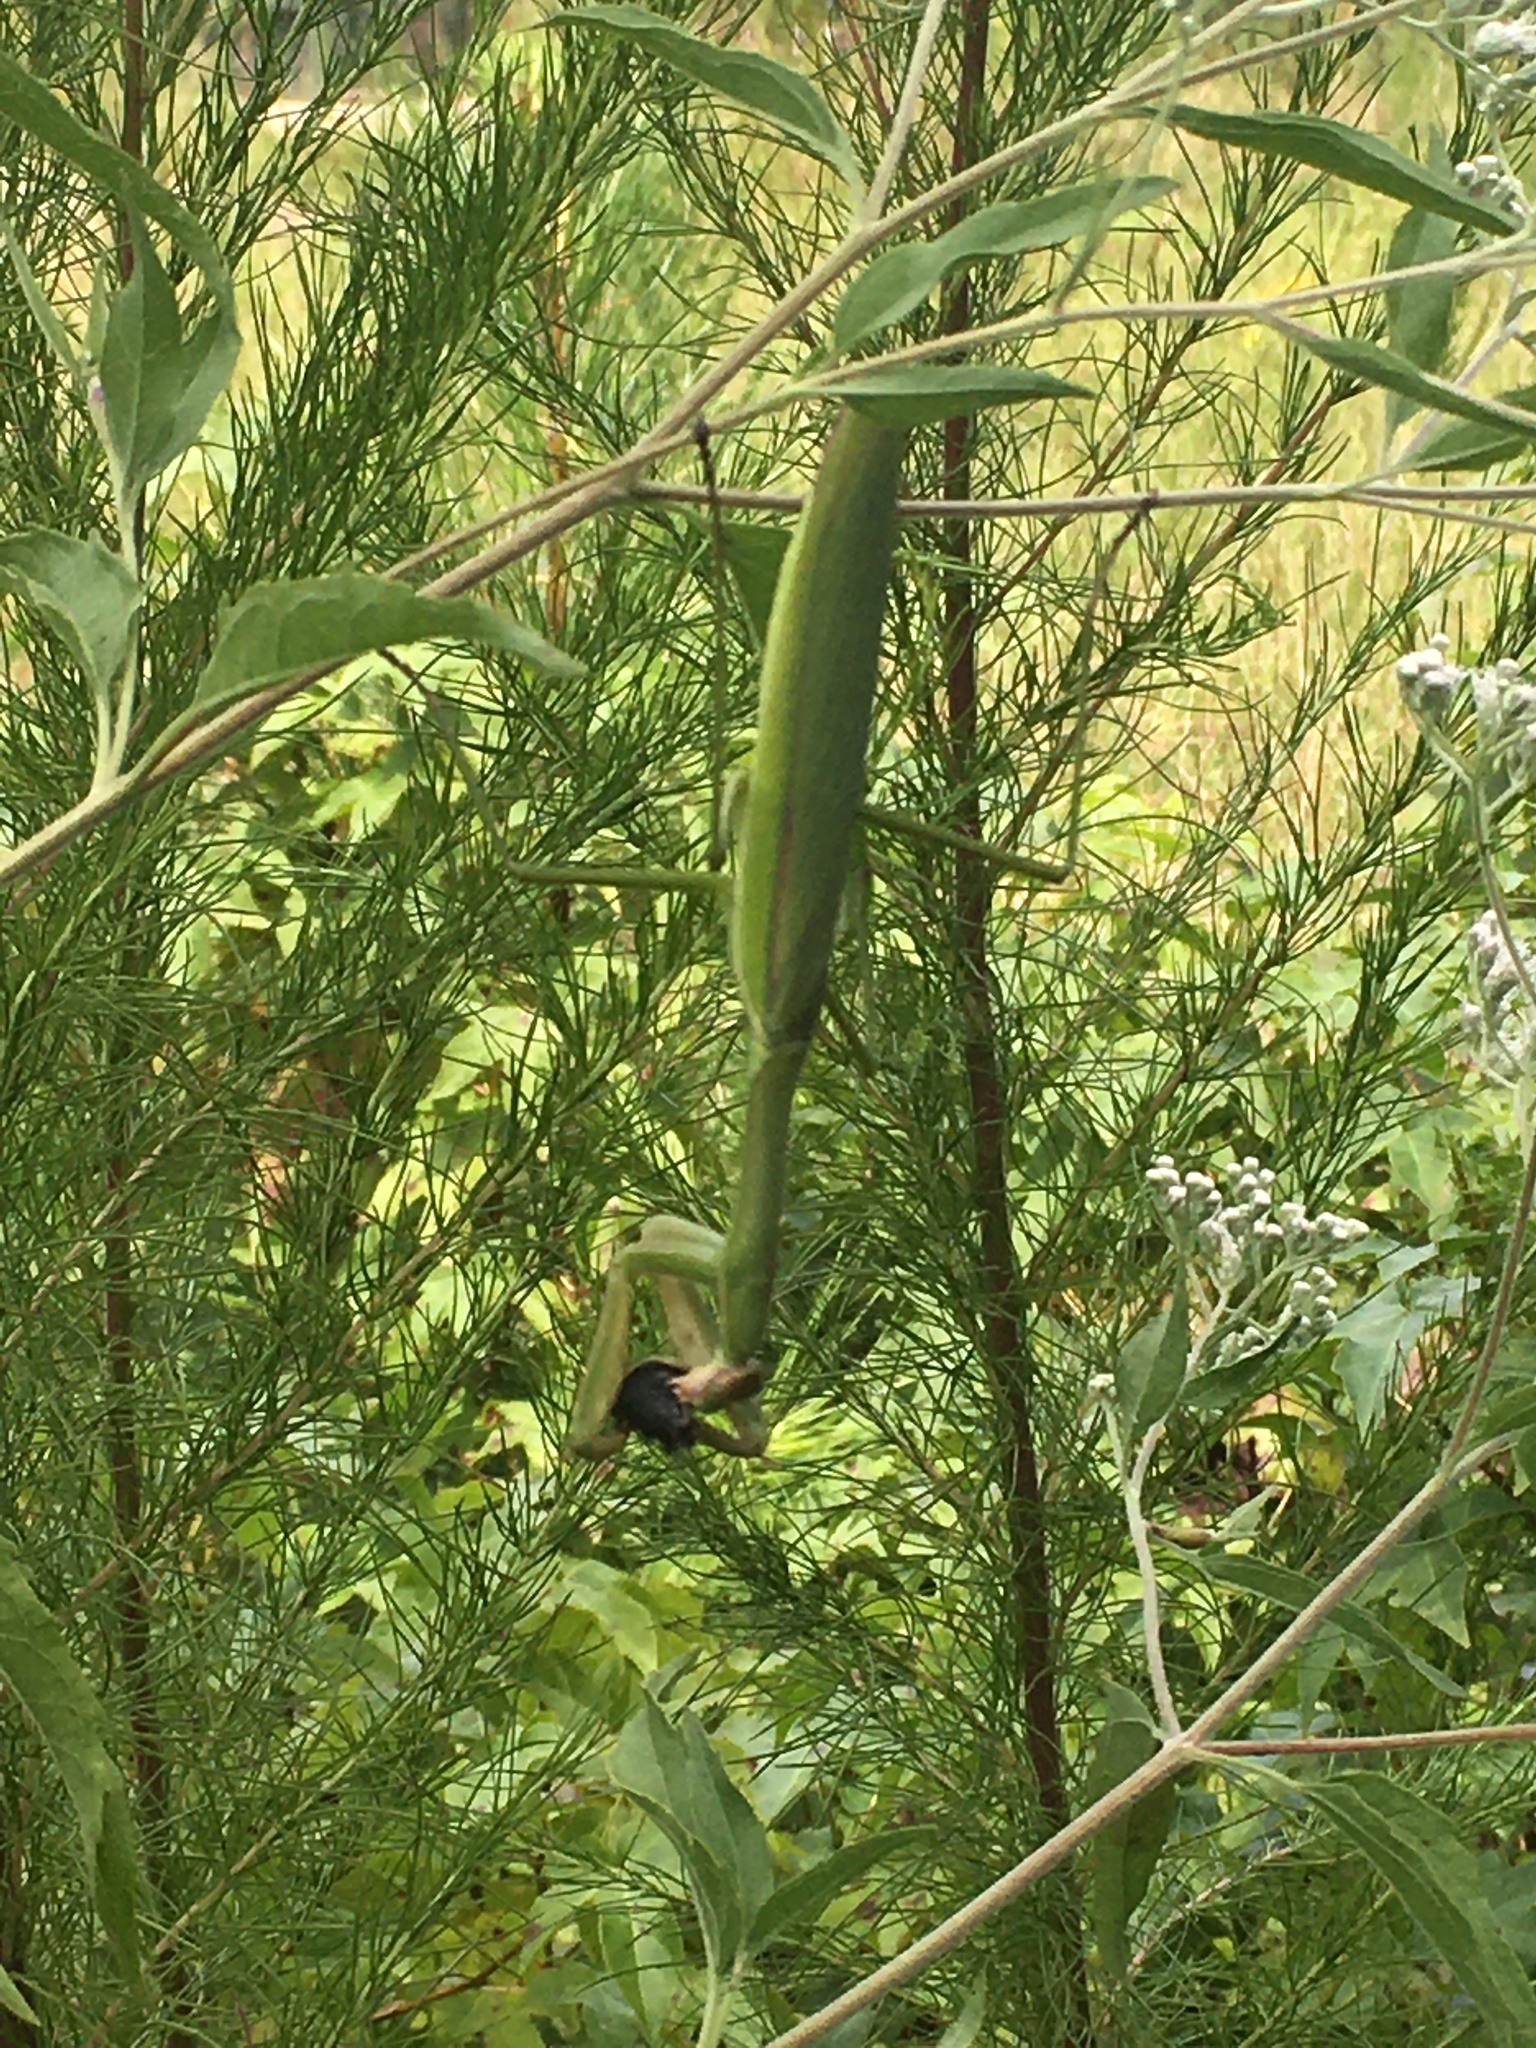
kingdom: Animalia
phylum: Arthropoda
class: Insecta
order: Mantodea
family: Mantidae
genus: Tenodera
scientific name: Tenodera sinensis
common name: Chinese mantis
